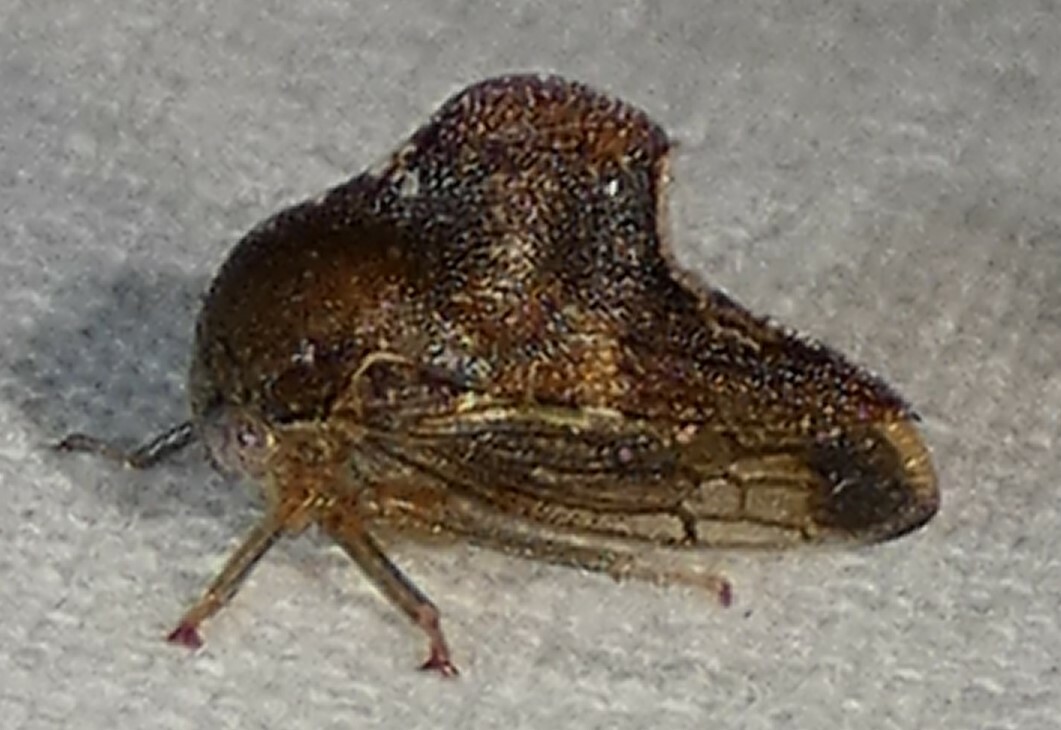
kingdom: Animalia
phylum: Arthropoda
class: Insecta
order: Hemiptera
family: Membracidae
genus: Telamona
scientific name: Telamona woodruffi
